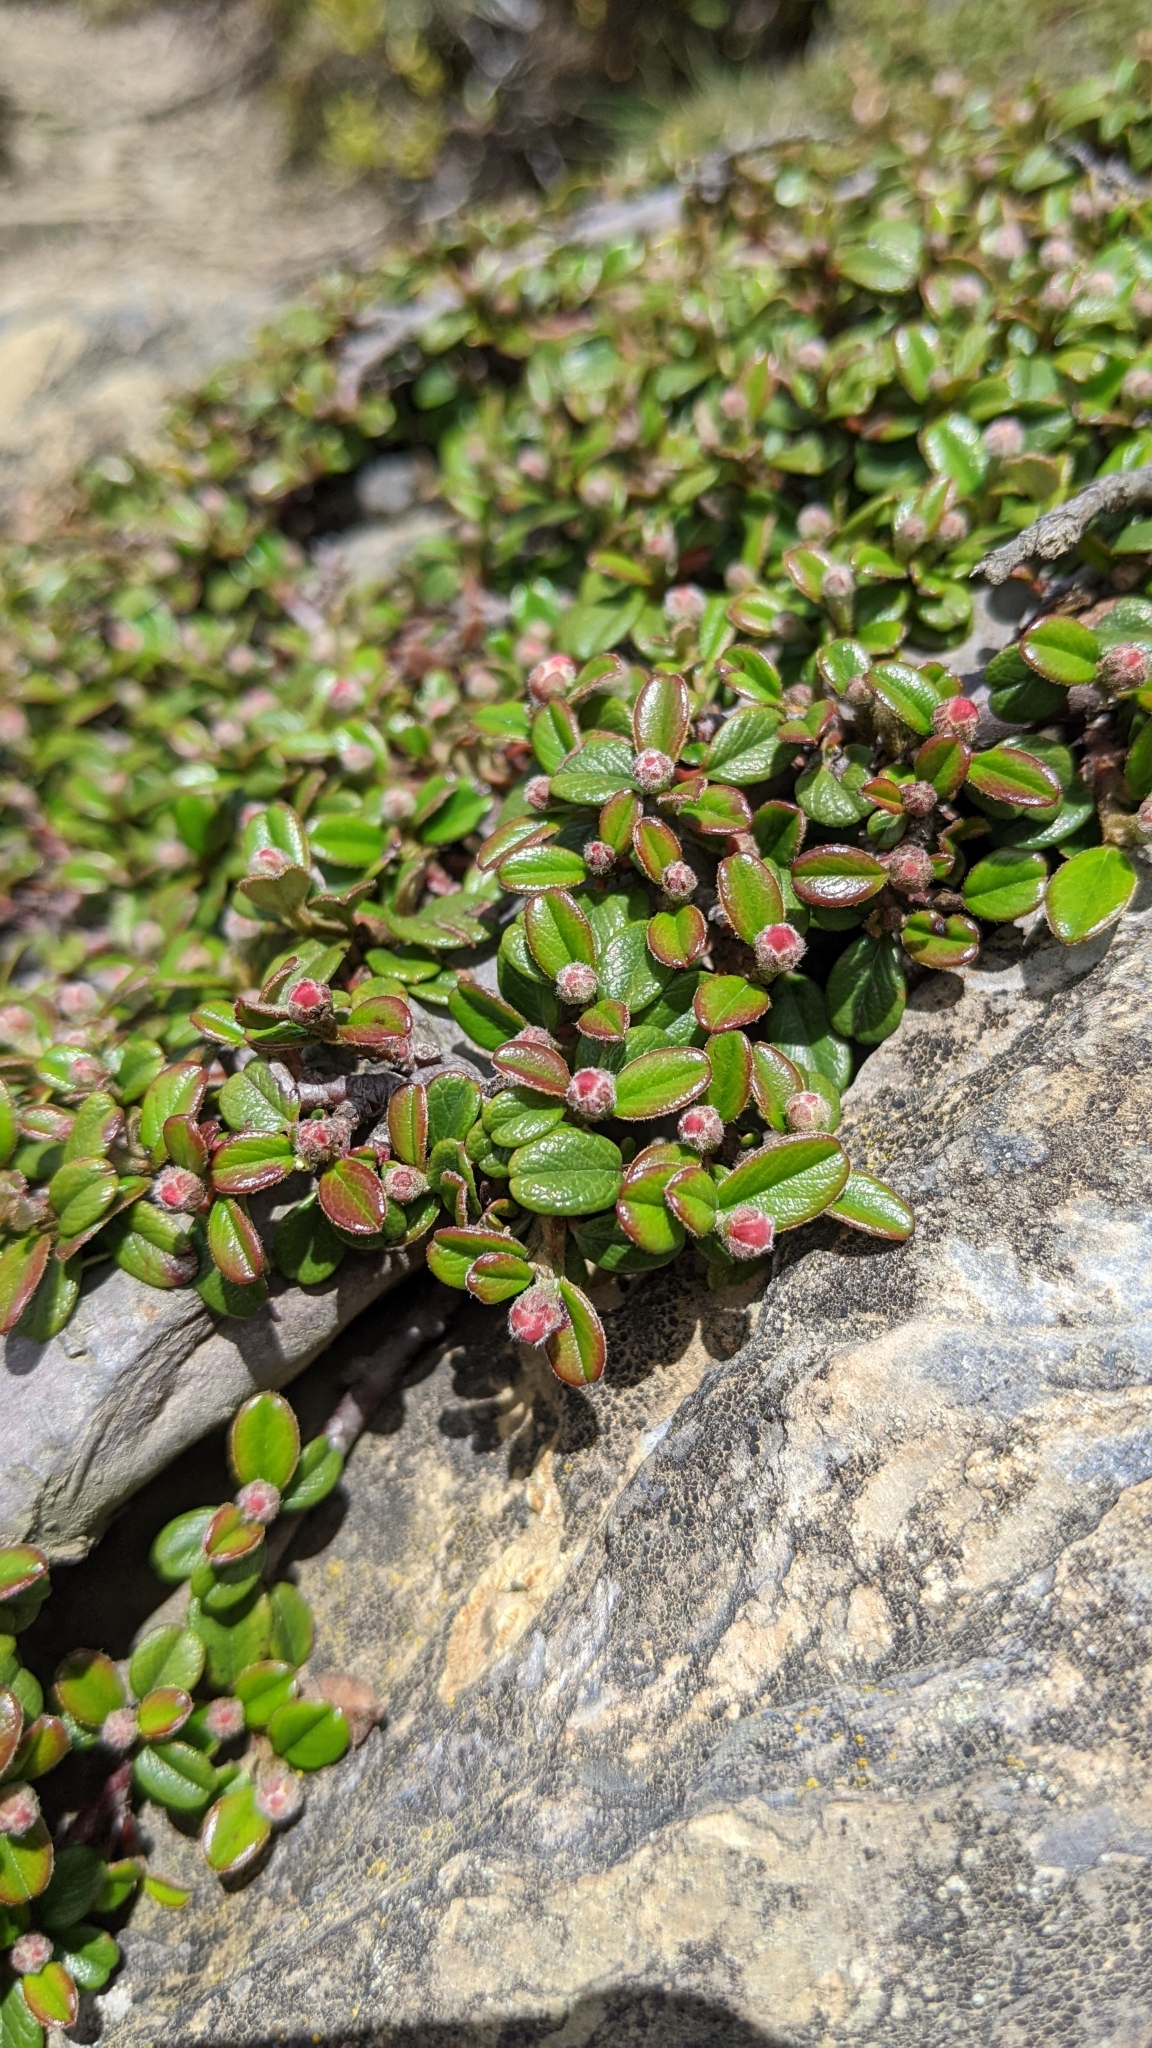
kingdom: Plantae
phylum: Tracheophyta
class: Magnoliopsida
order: Rosales
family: Rosaceae
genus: Cotoneaster
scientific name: Cotoneaster morrisonensis
